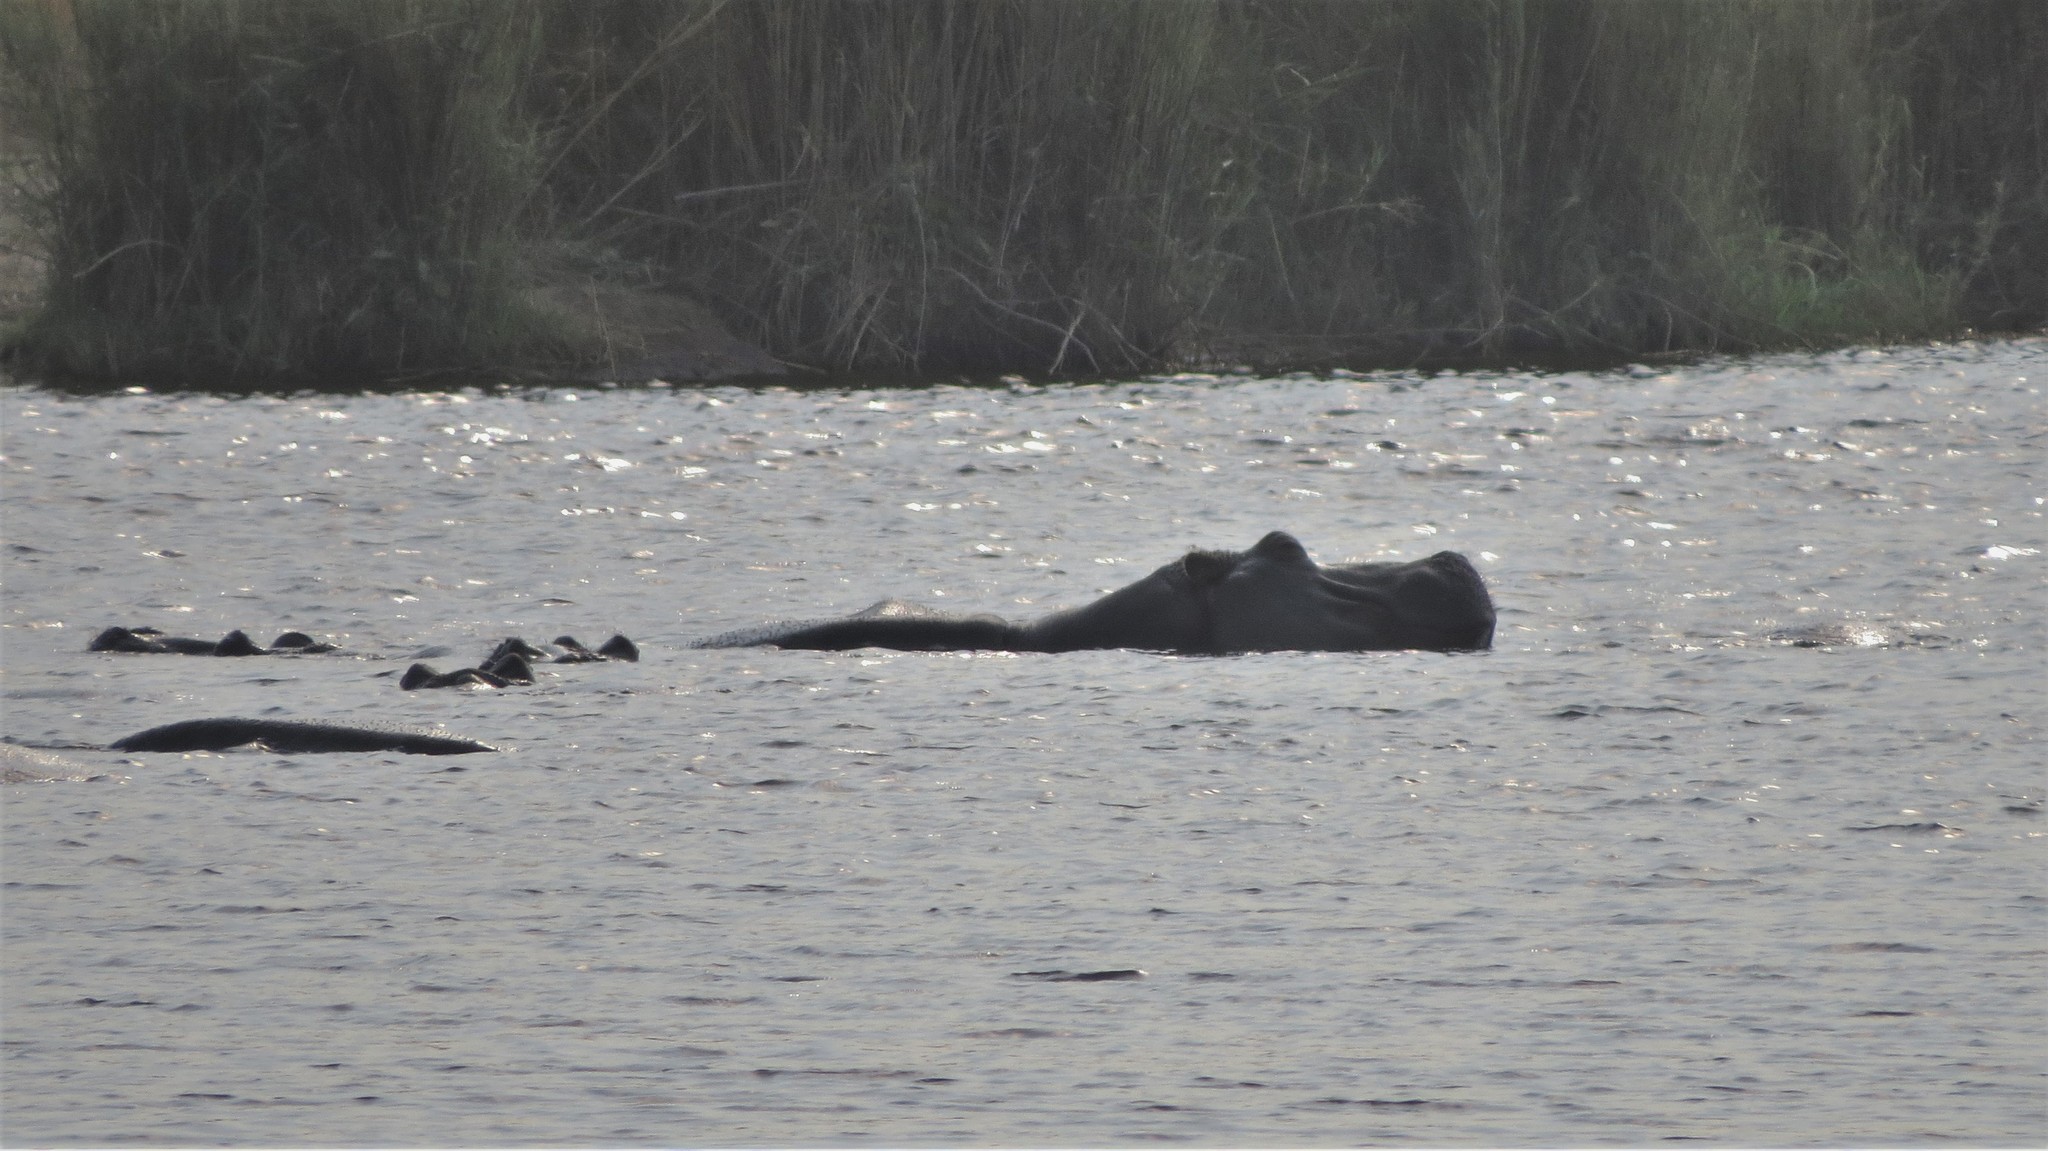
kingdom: Animalia
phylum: Chordata
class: Mammalia
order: Artiodactyla
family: Hippopotamidae
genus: Hippopotamus
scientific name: Hippopotamus amphibius
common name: Common hippopotamus
